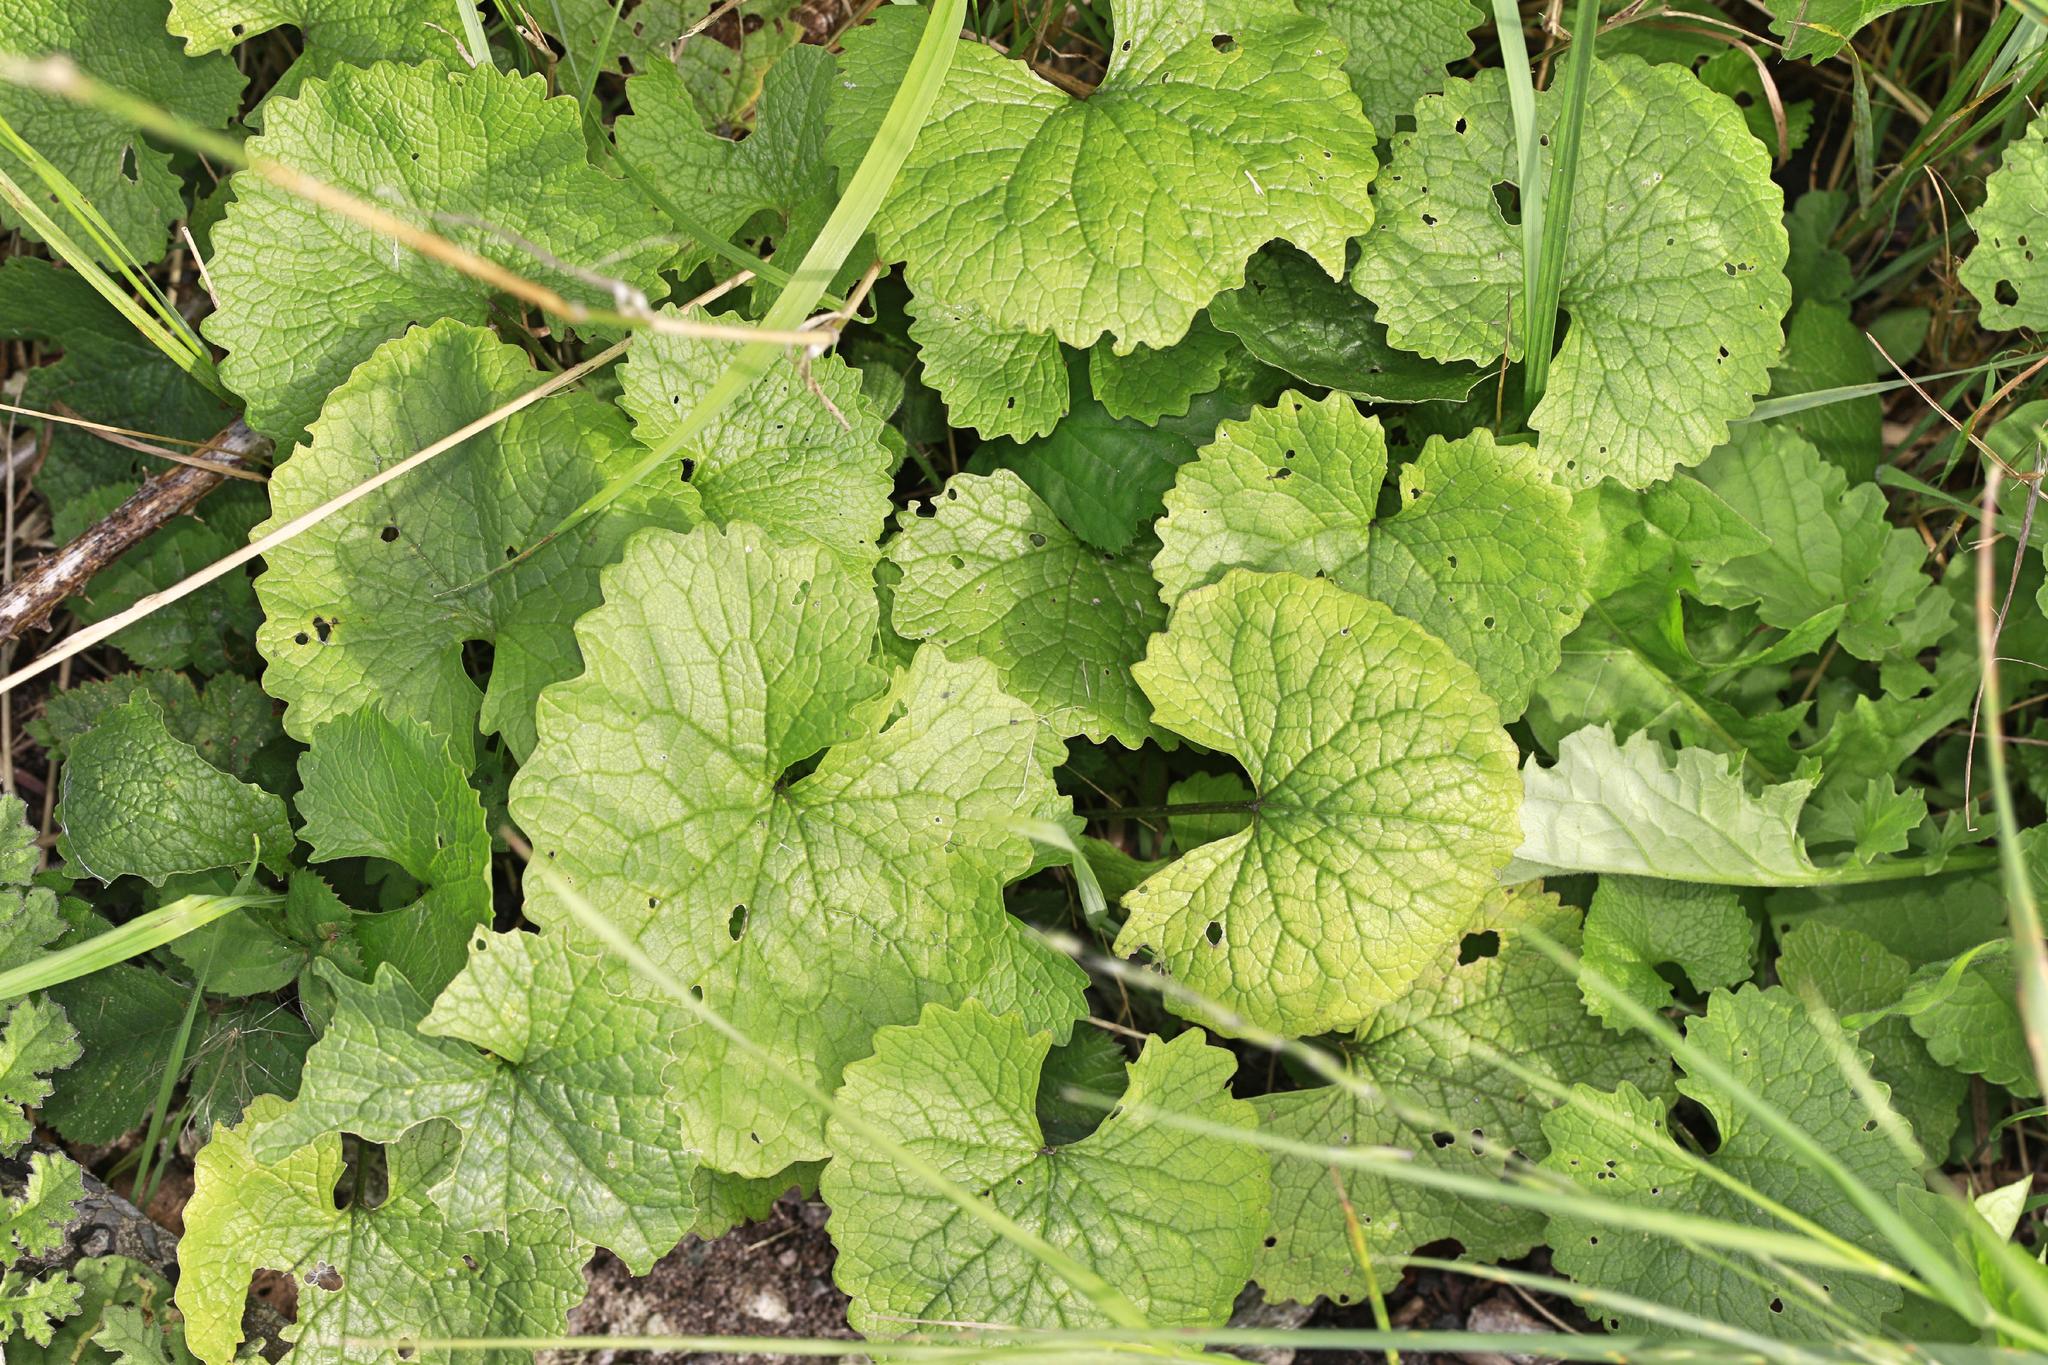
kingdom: Plantae
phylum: Tracheophyta
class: Magnoliopsida
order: Brassicales
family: Brassicaceae
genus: Alliaria
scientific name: Alliaria petiolata
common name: Garlic mustard
